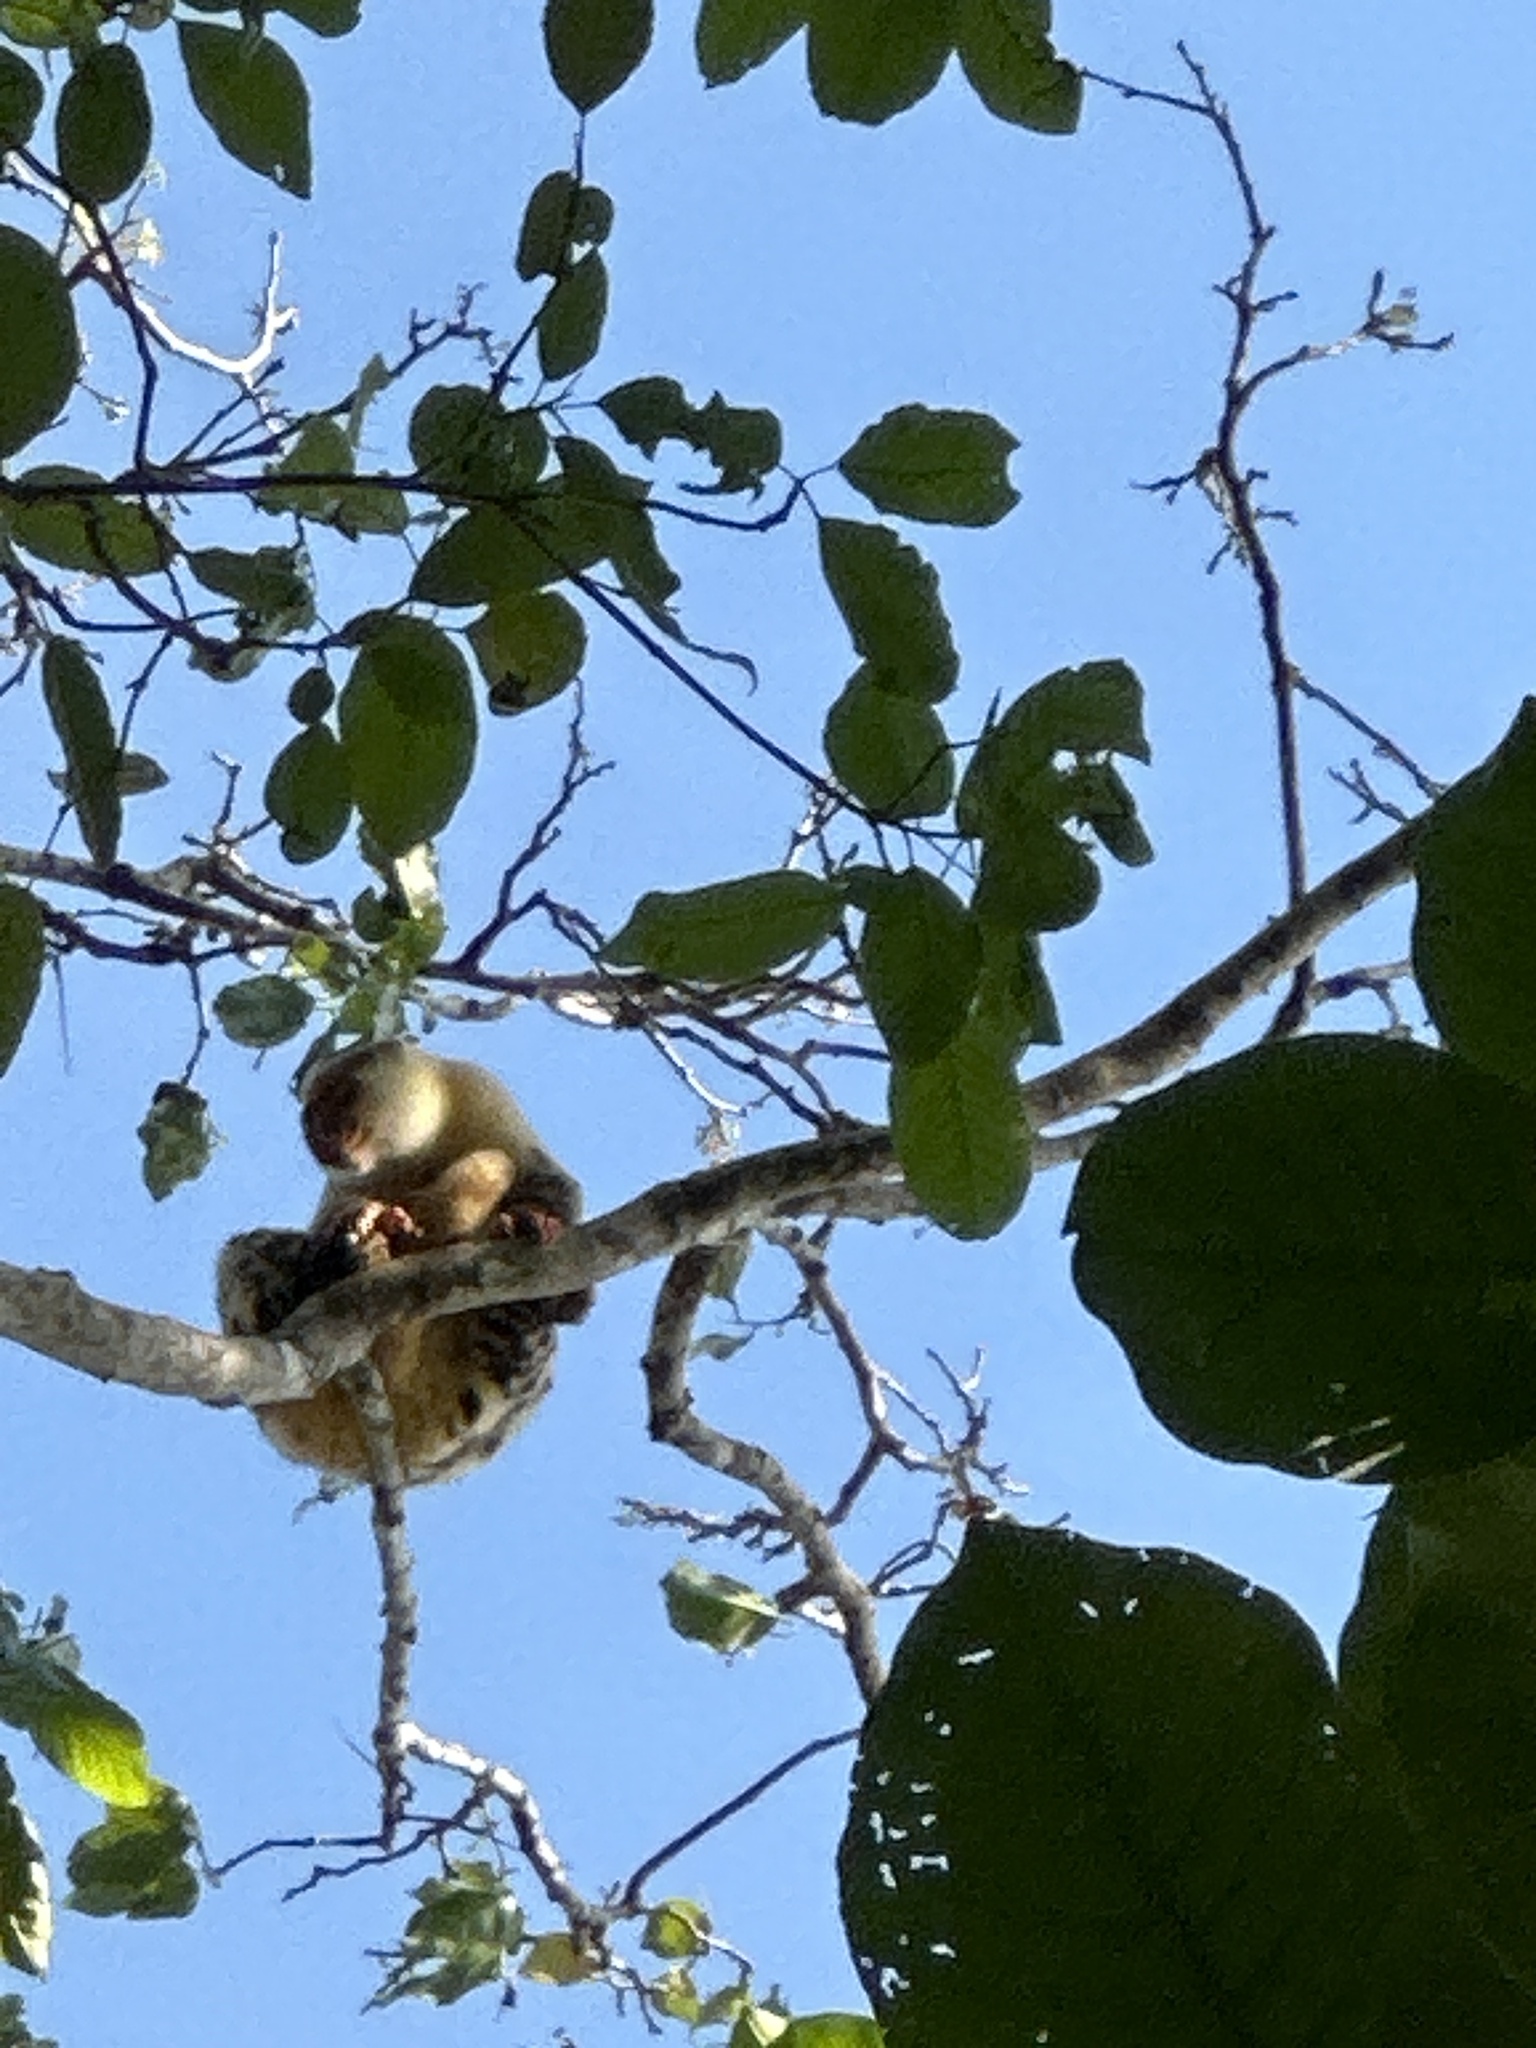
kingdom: Animalia
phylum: Chordata
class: Mammalia
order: Diprotodontia
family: Phalangeridae
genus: Spilocuscus
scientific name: Spilocuscus papuensis
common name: Waigeou cuscus
